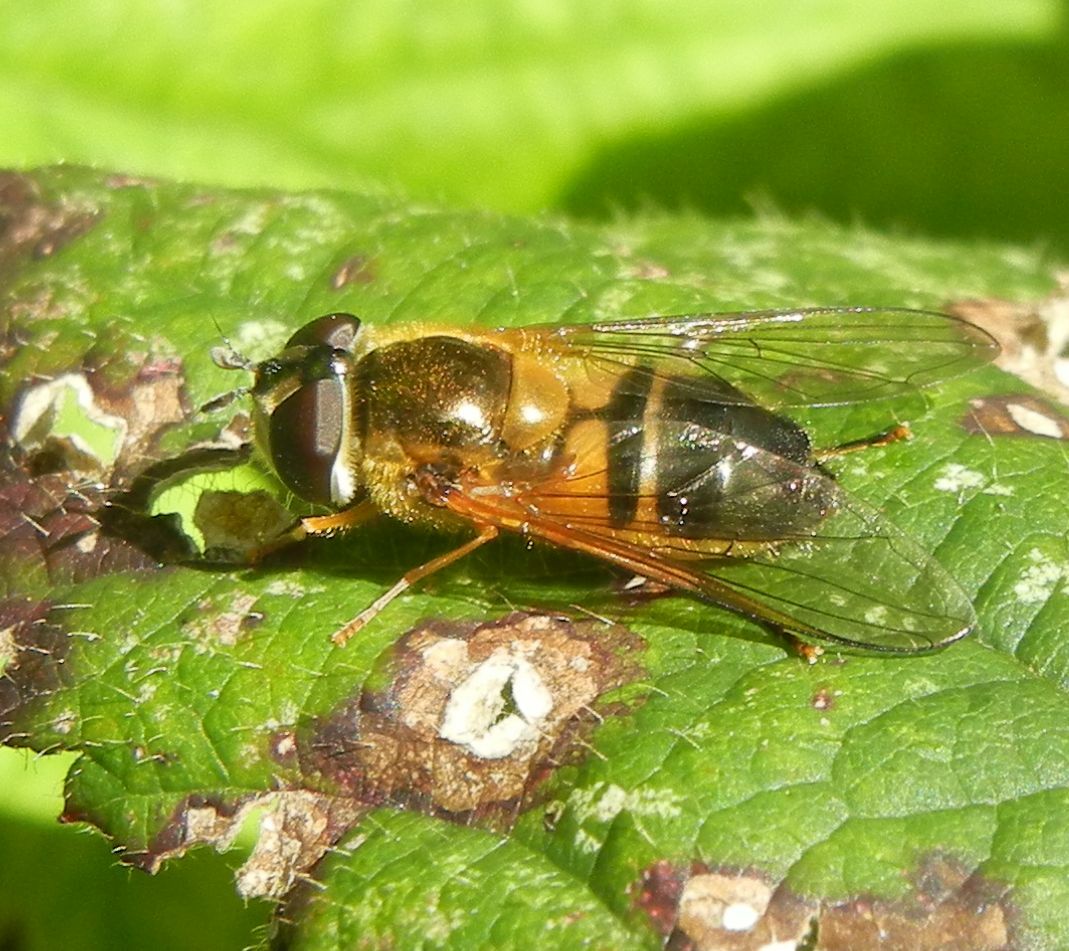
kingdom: Animalia
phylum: Arthropoda
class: Insecta
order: Diptera
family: Syrphidae
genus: Epistrophe
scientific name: Epistrophe eligans
